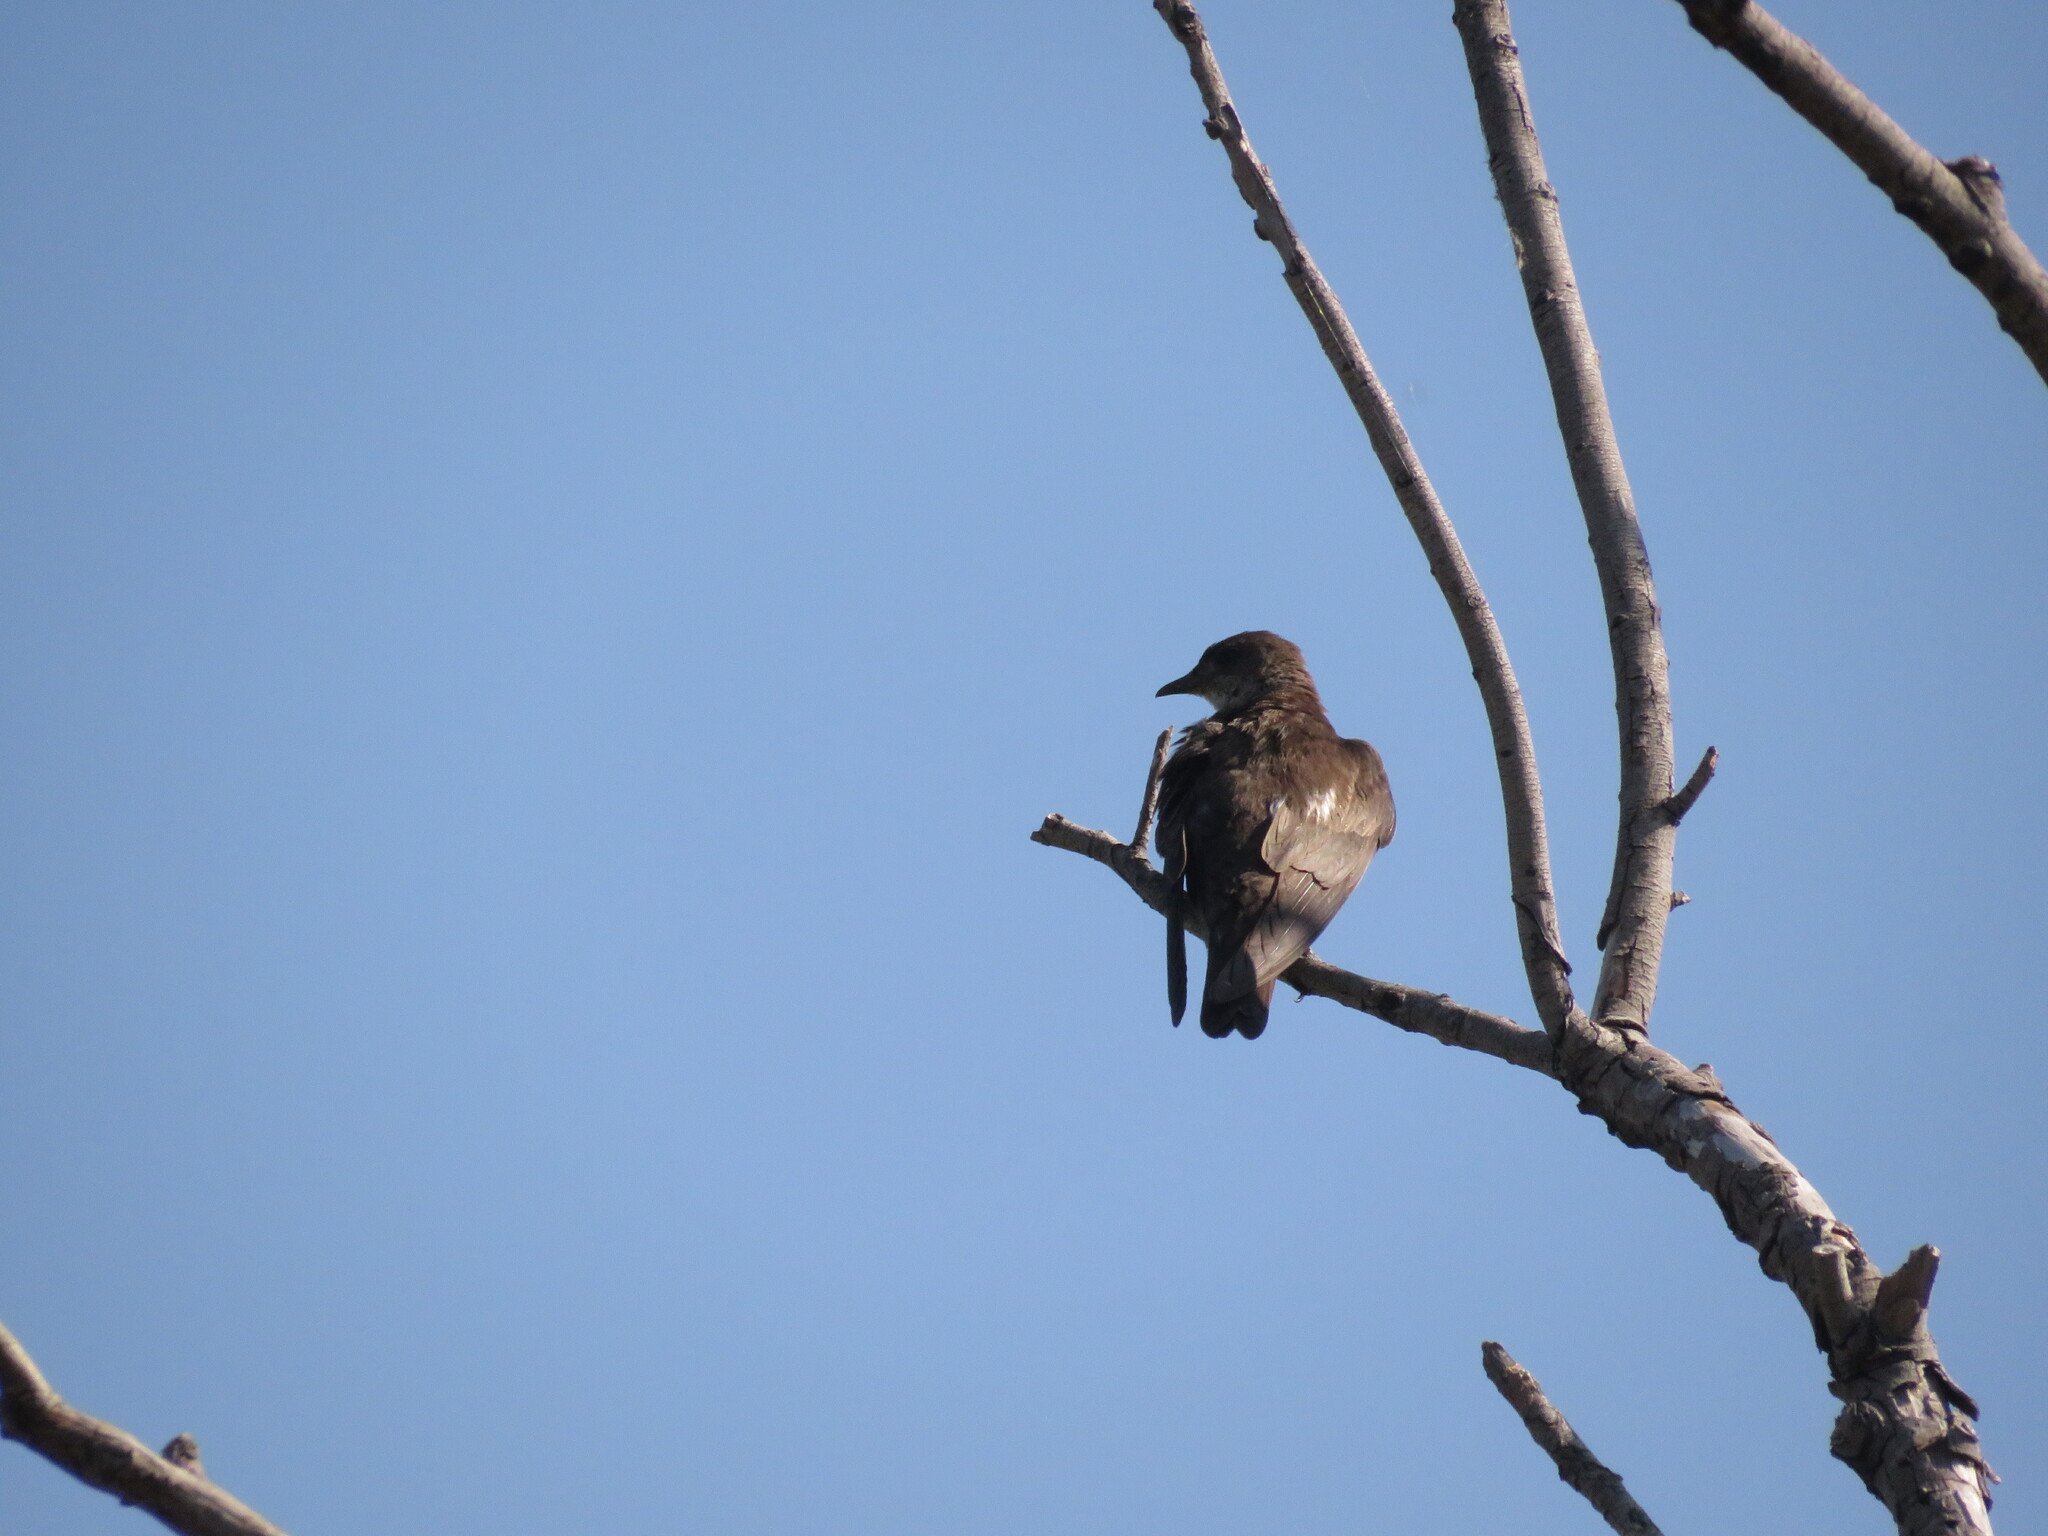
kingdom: Animalia
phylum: Chordata
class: Aves
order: Passeriformes
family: Hirundinidae
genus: Progne
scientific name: Progne tapera
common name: Brown-chested martin
